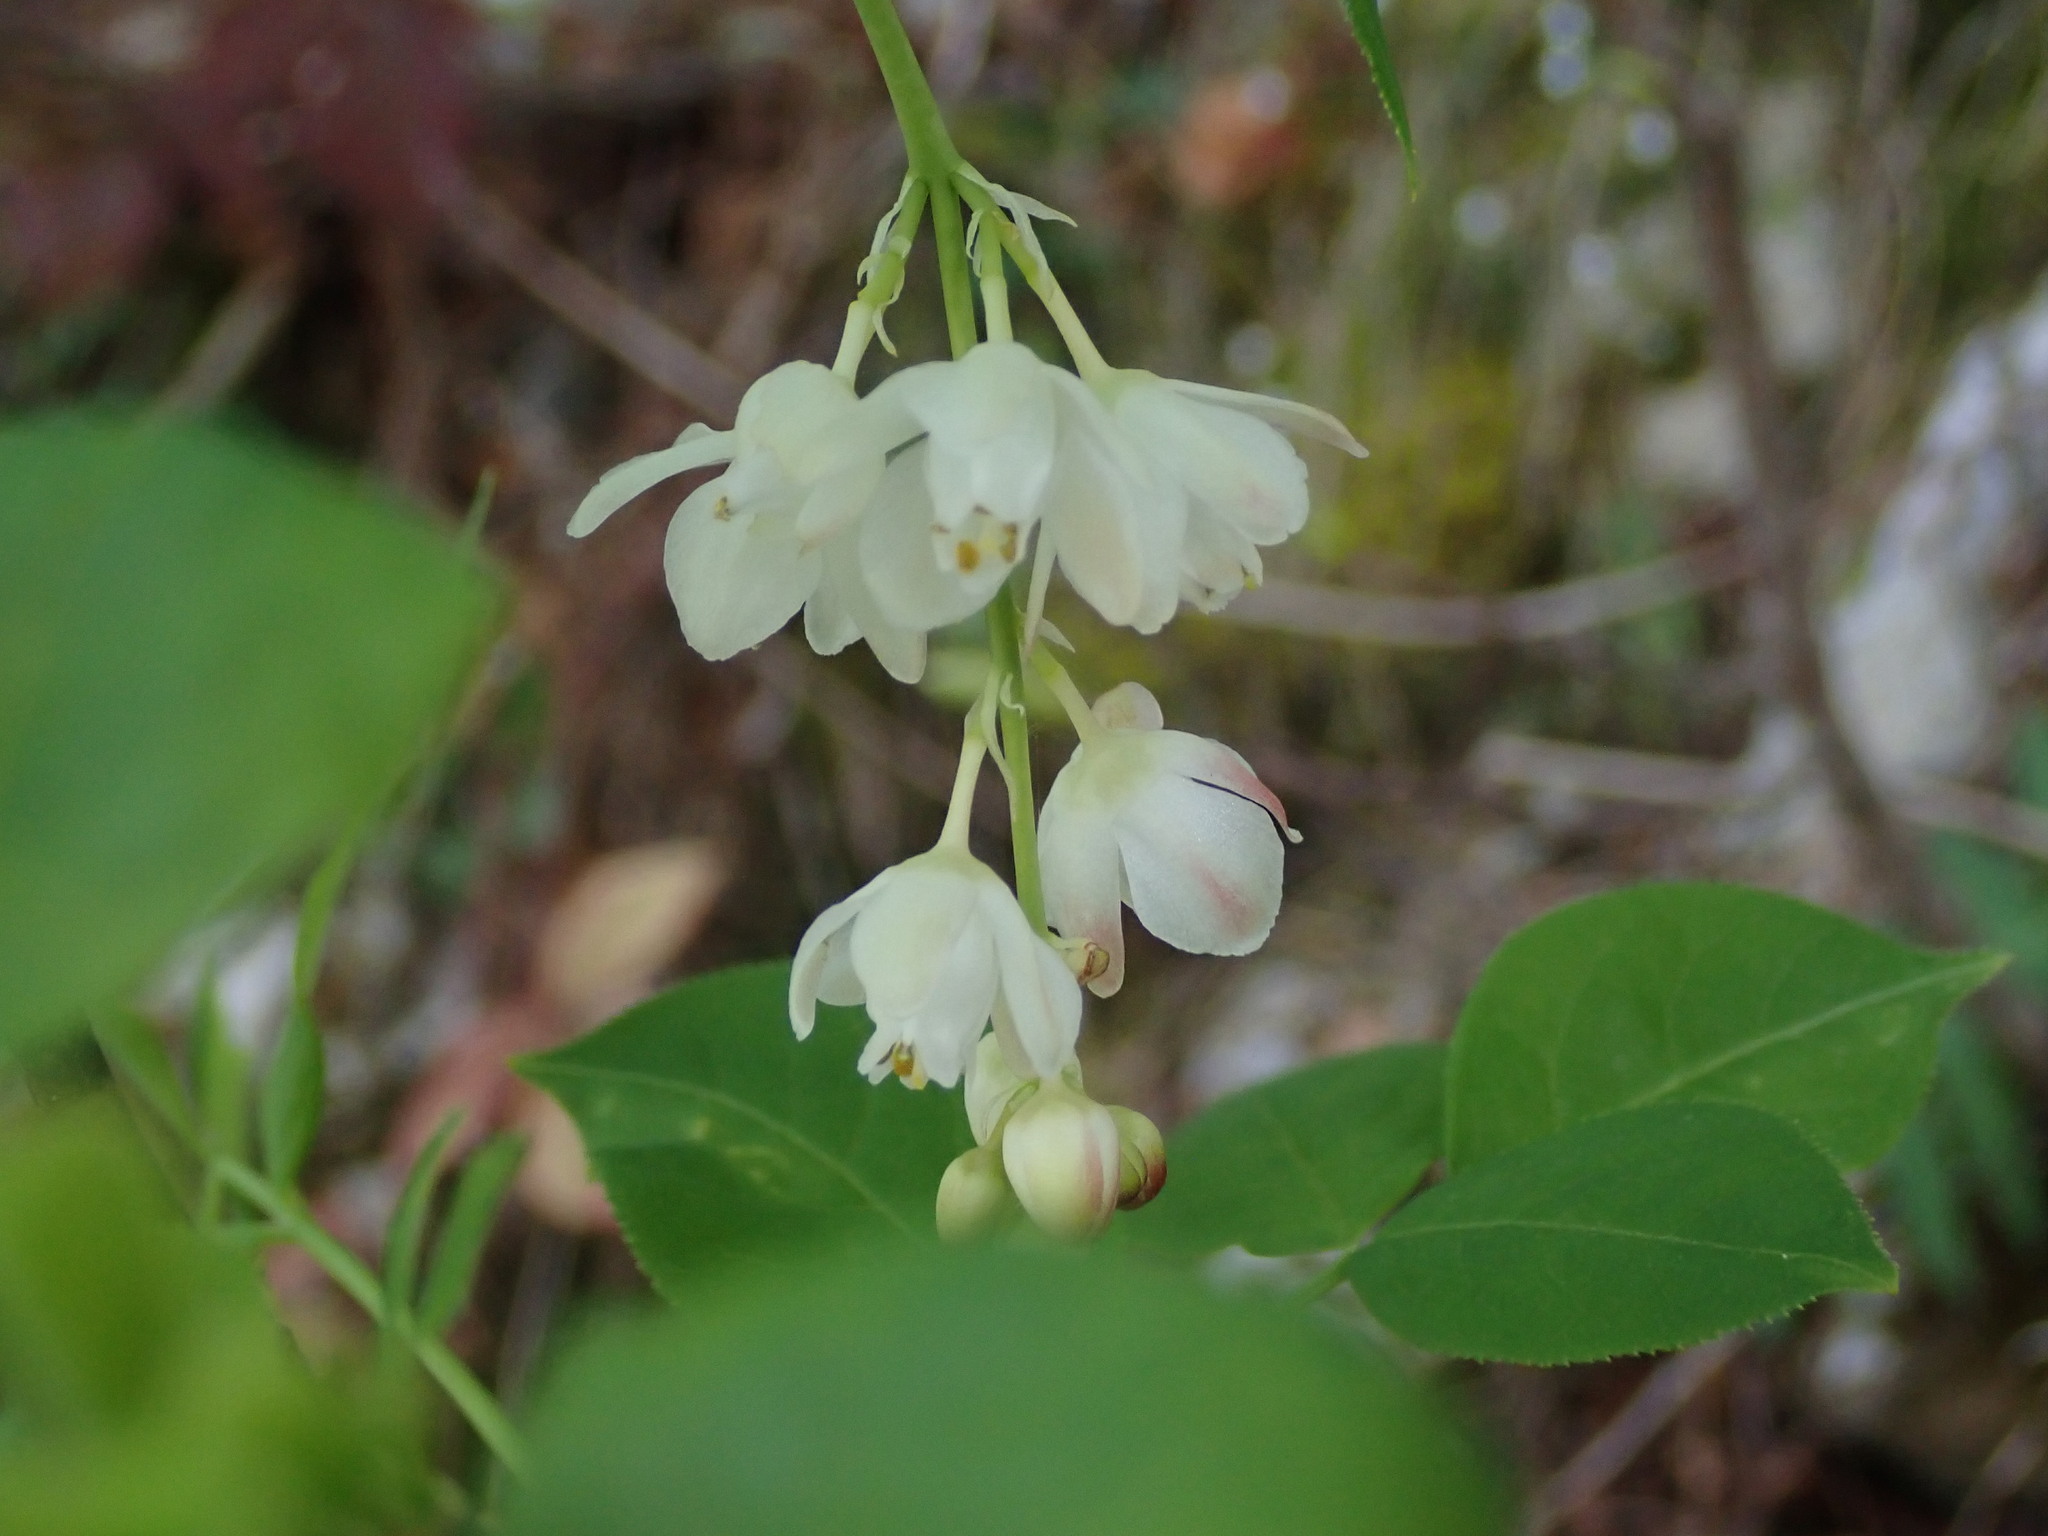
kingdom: Plantae
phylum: Tracheophyta
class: Magnoliopsida
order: Crossosomatales
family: Staphyleaceae
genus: Staphylea
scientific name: Staphylea pinnata
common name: Bladdernut
